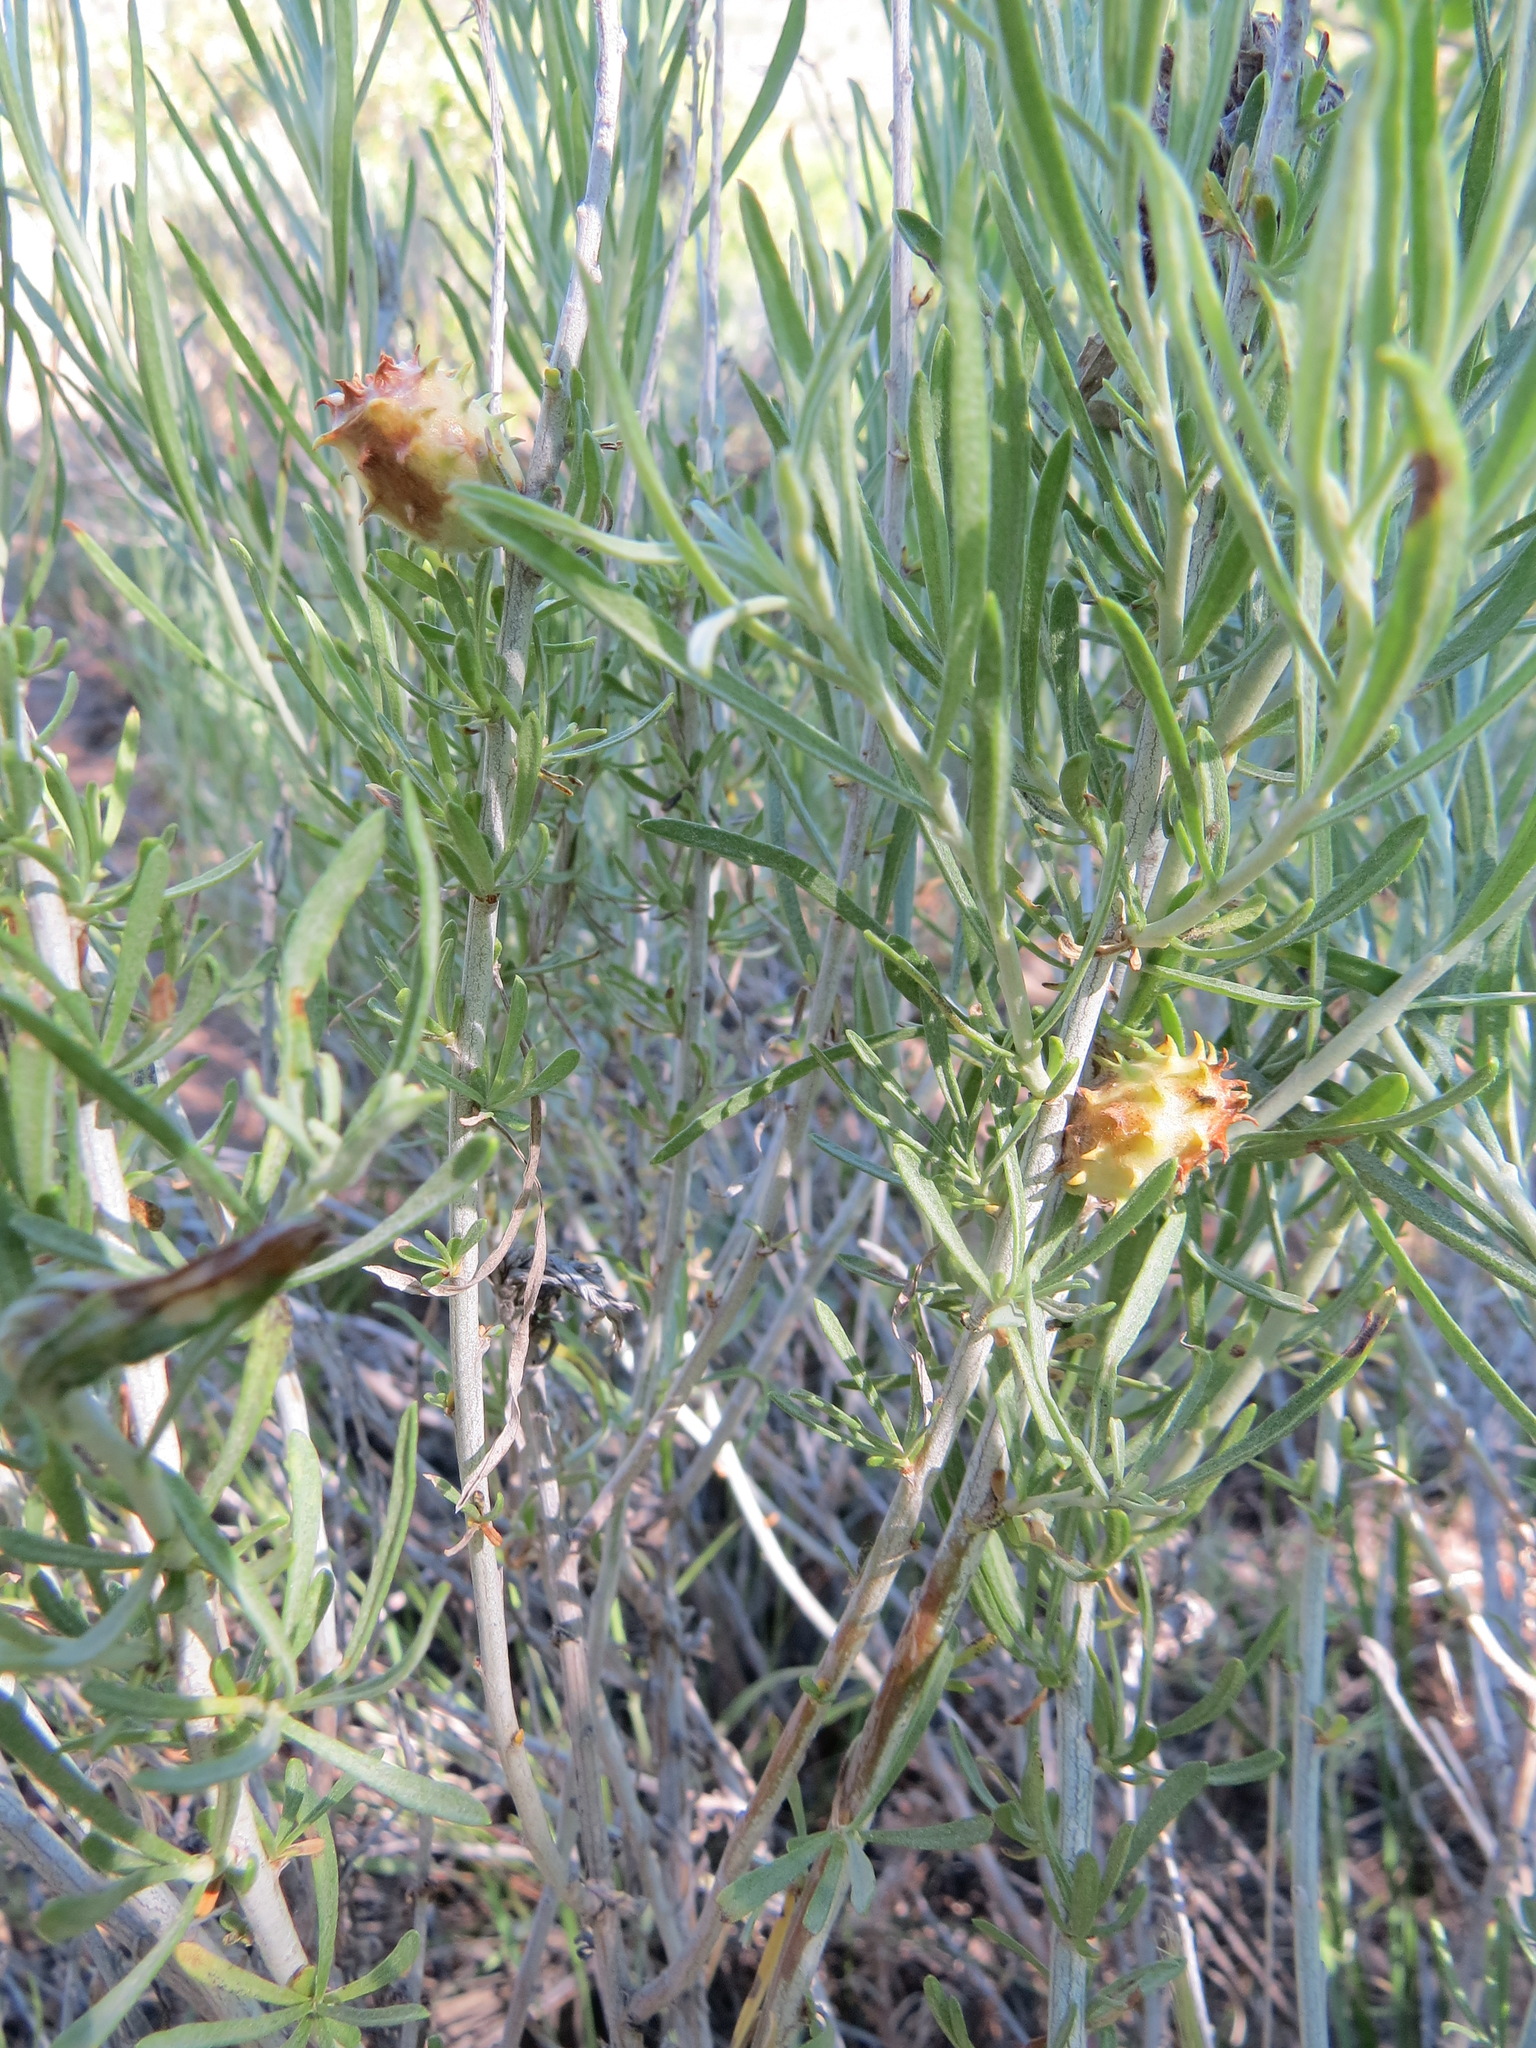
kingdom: Animalia
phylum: Arthropoda
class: Insecta
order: Diptera
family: Cecidomyiidae
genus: Rhopalomyia
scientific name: Rhopalomyia utahensis
